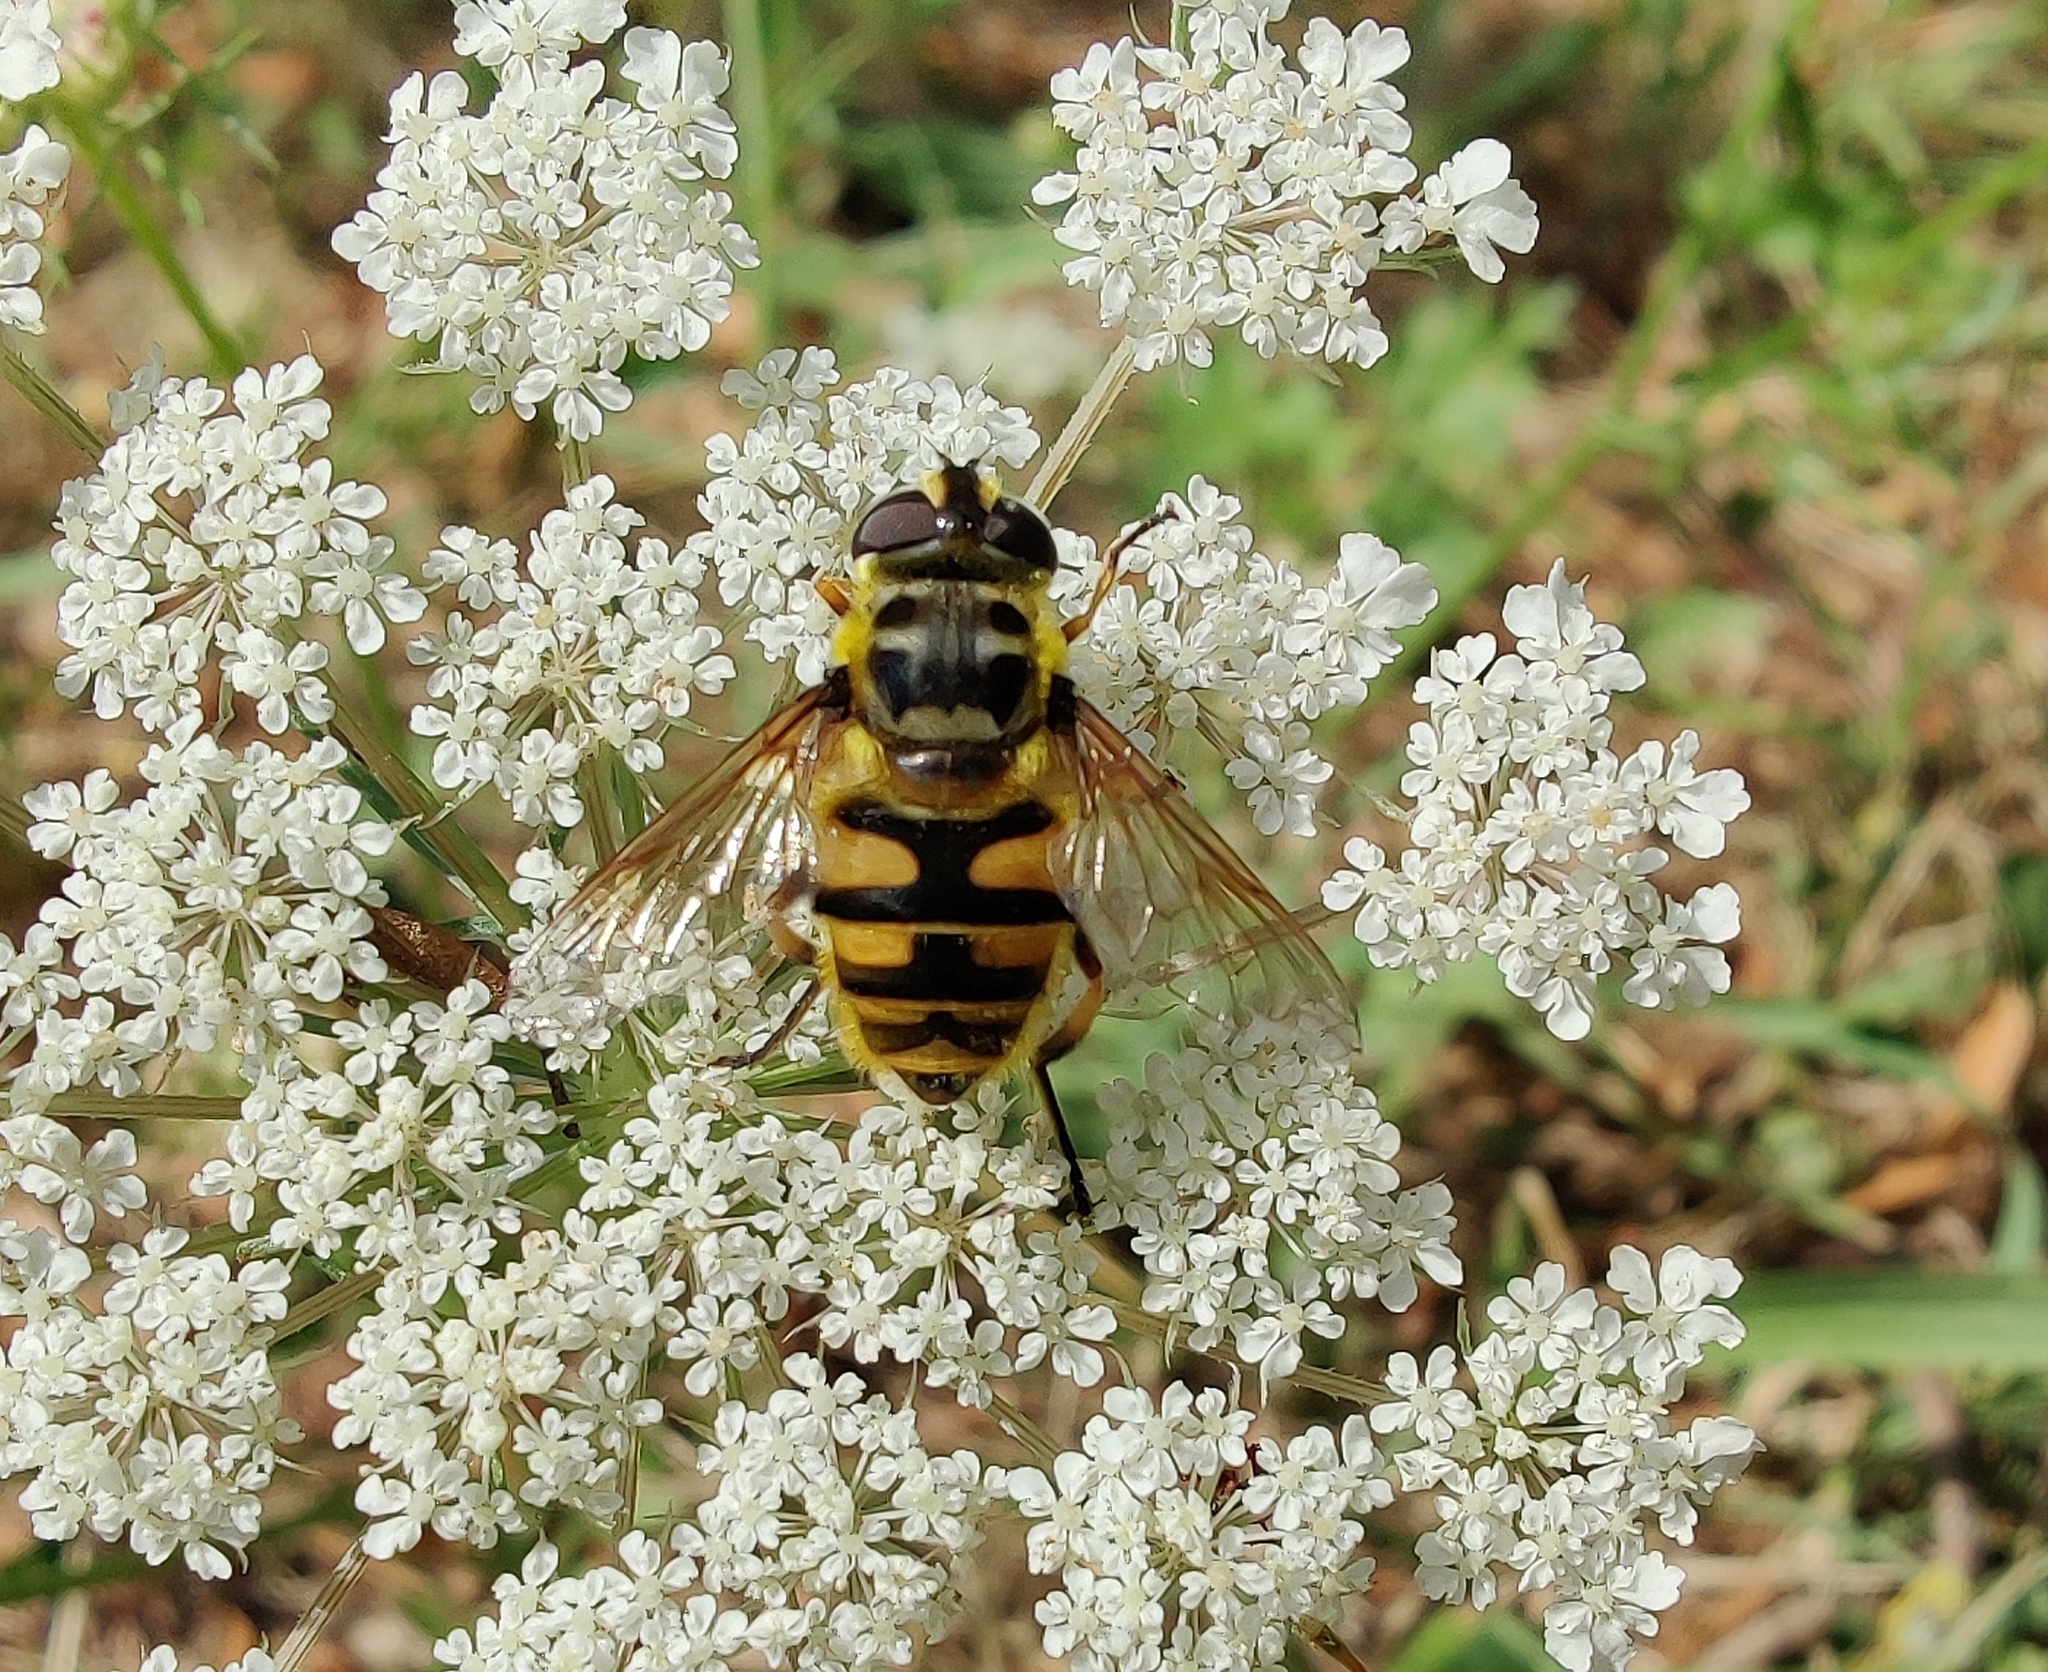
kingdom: Animalia
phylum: Arthropoda
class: Insecta
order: Diptera
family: Syrphidae
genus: Myathropa
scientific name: Myathropa florea
